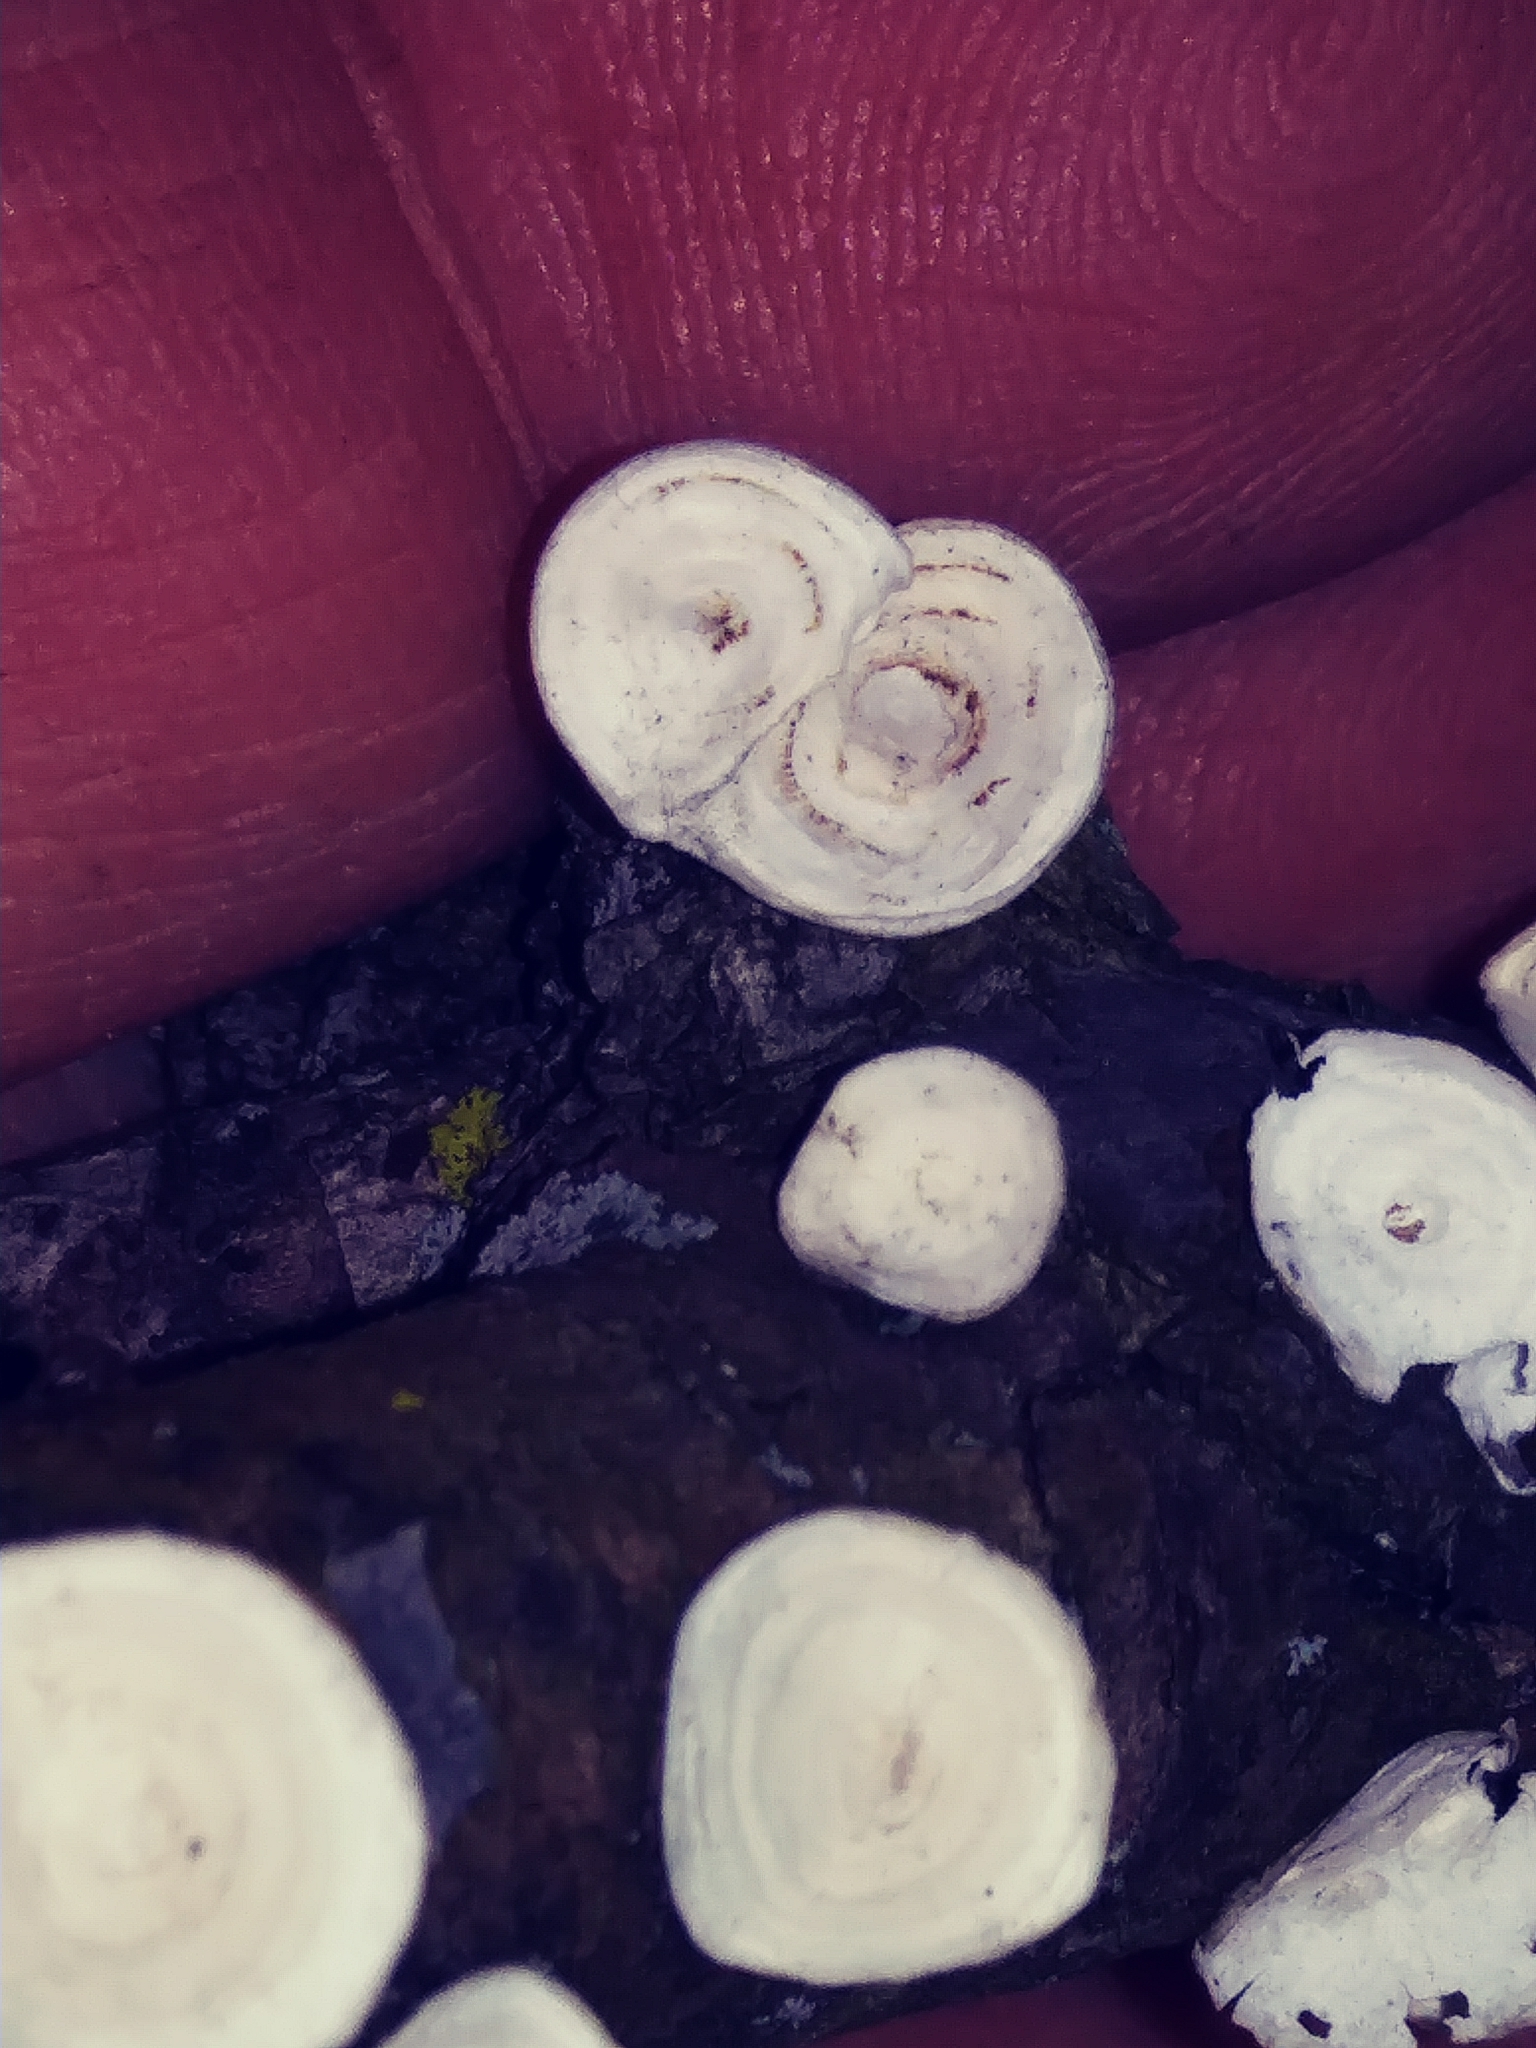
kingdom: Fungi
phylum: Basidiomycota
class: Agaricomycetes
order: Polyporales
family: Polyporaceae
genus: Poronidulus
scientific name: Poronidulus conchifer
